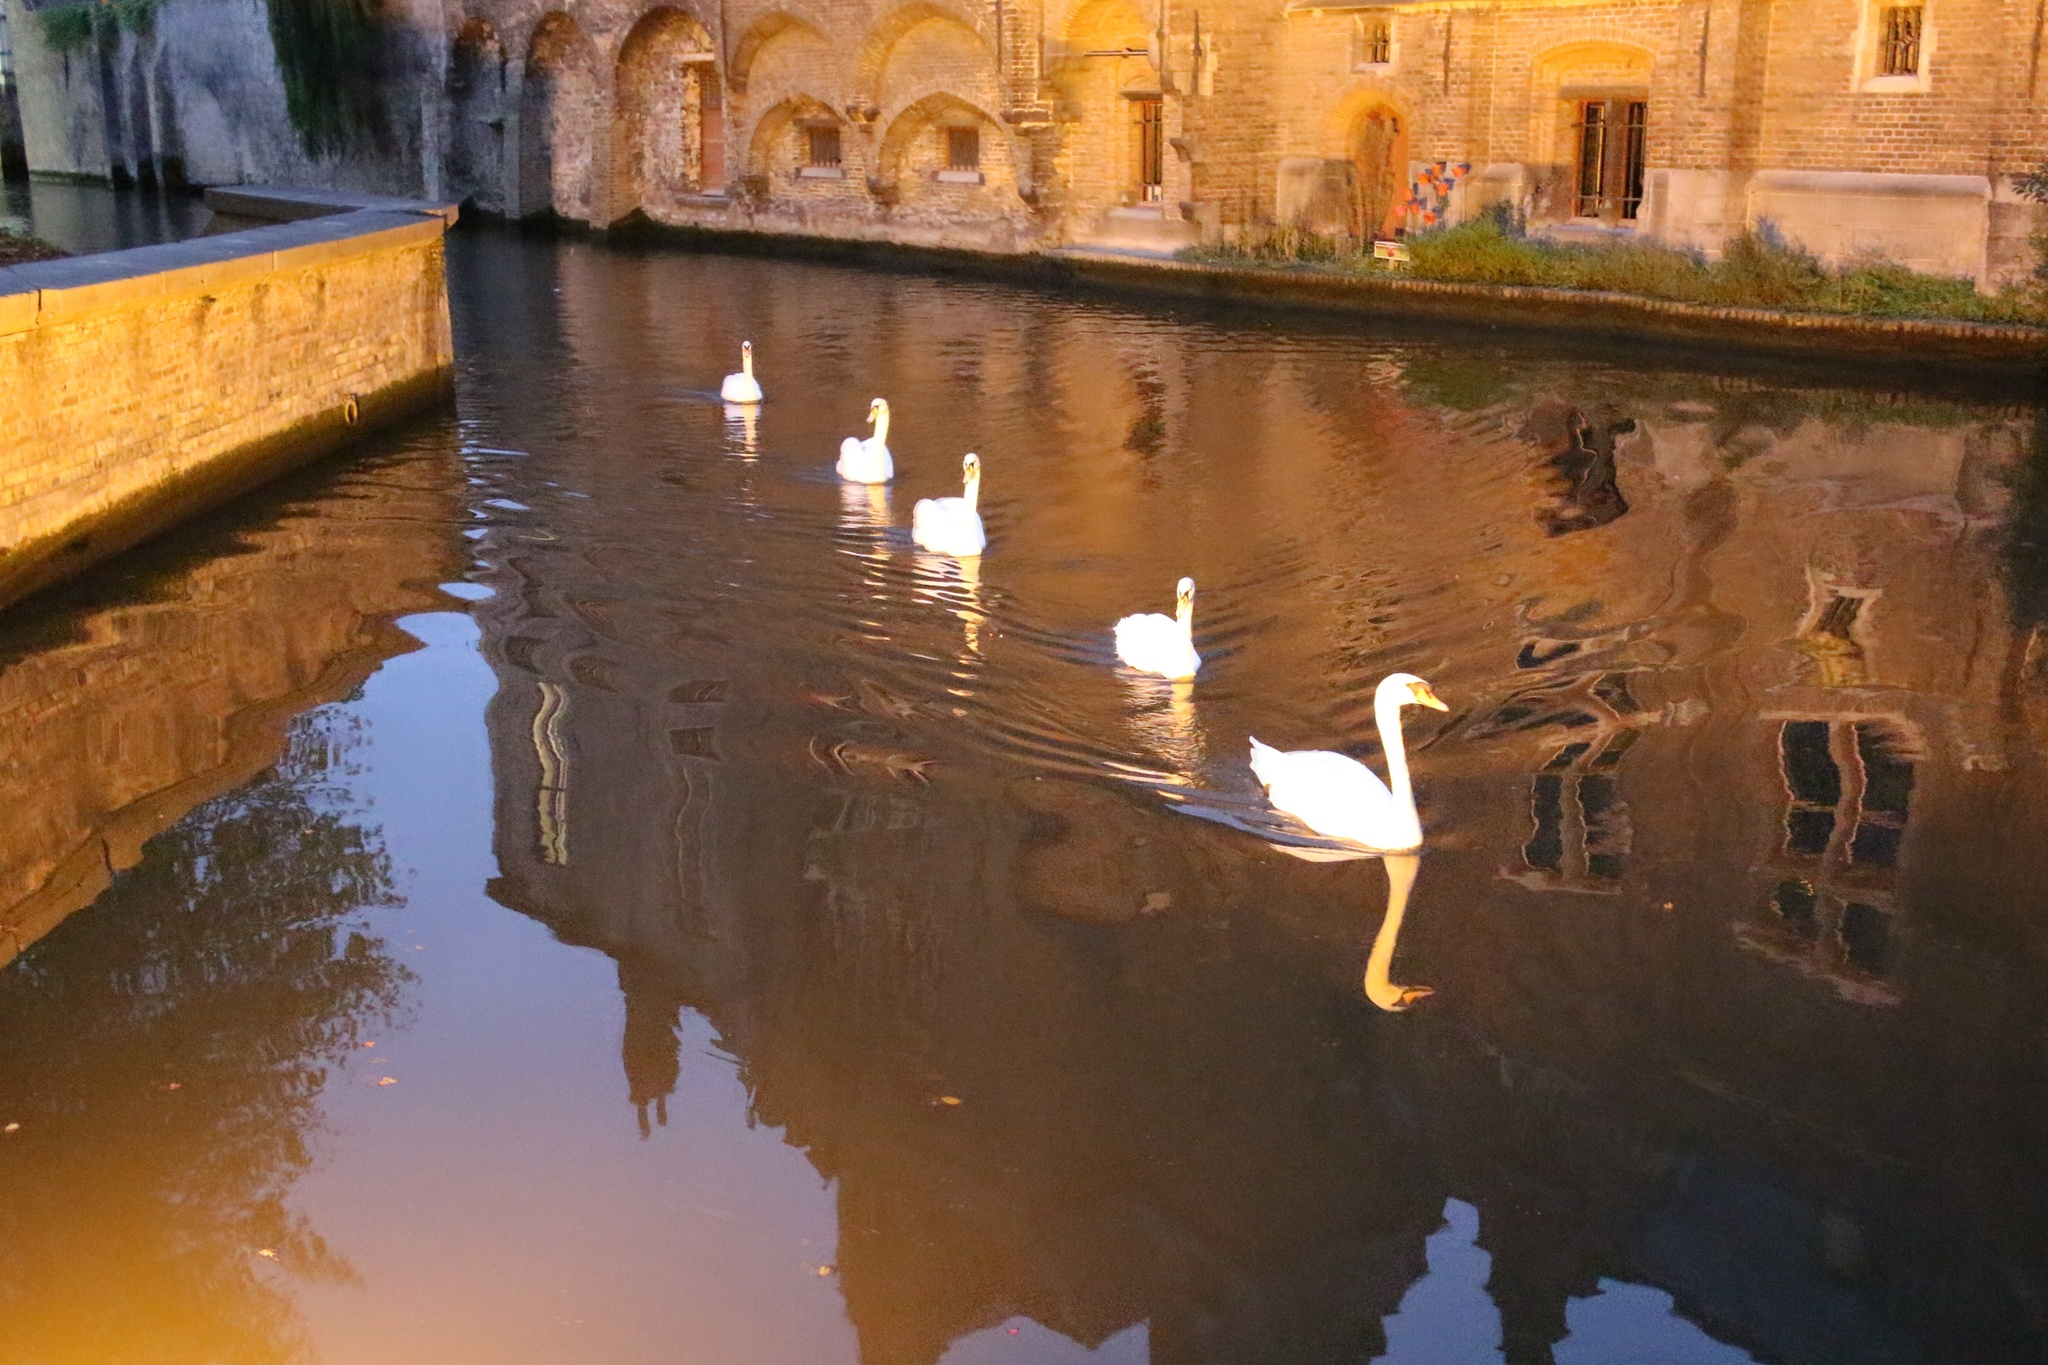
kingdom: Animalia
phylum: Chordata
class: Aves
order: Anseriformes
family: Anatidae
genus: Cygnus
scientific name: Cygnus olor
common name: Mute swan
